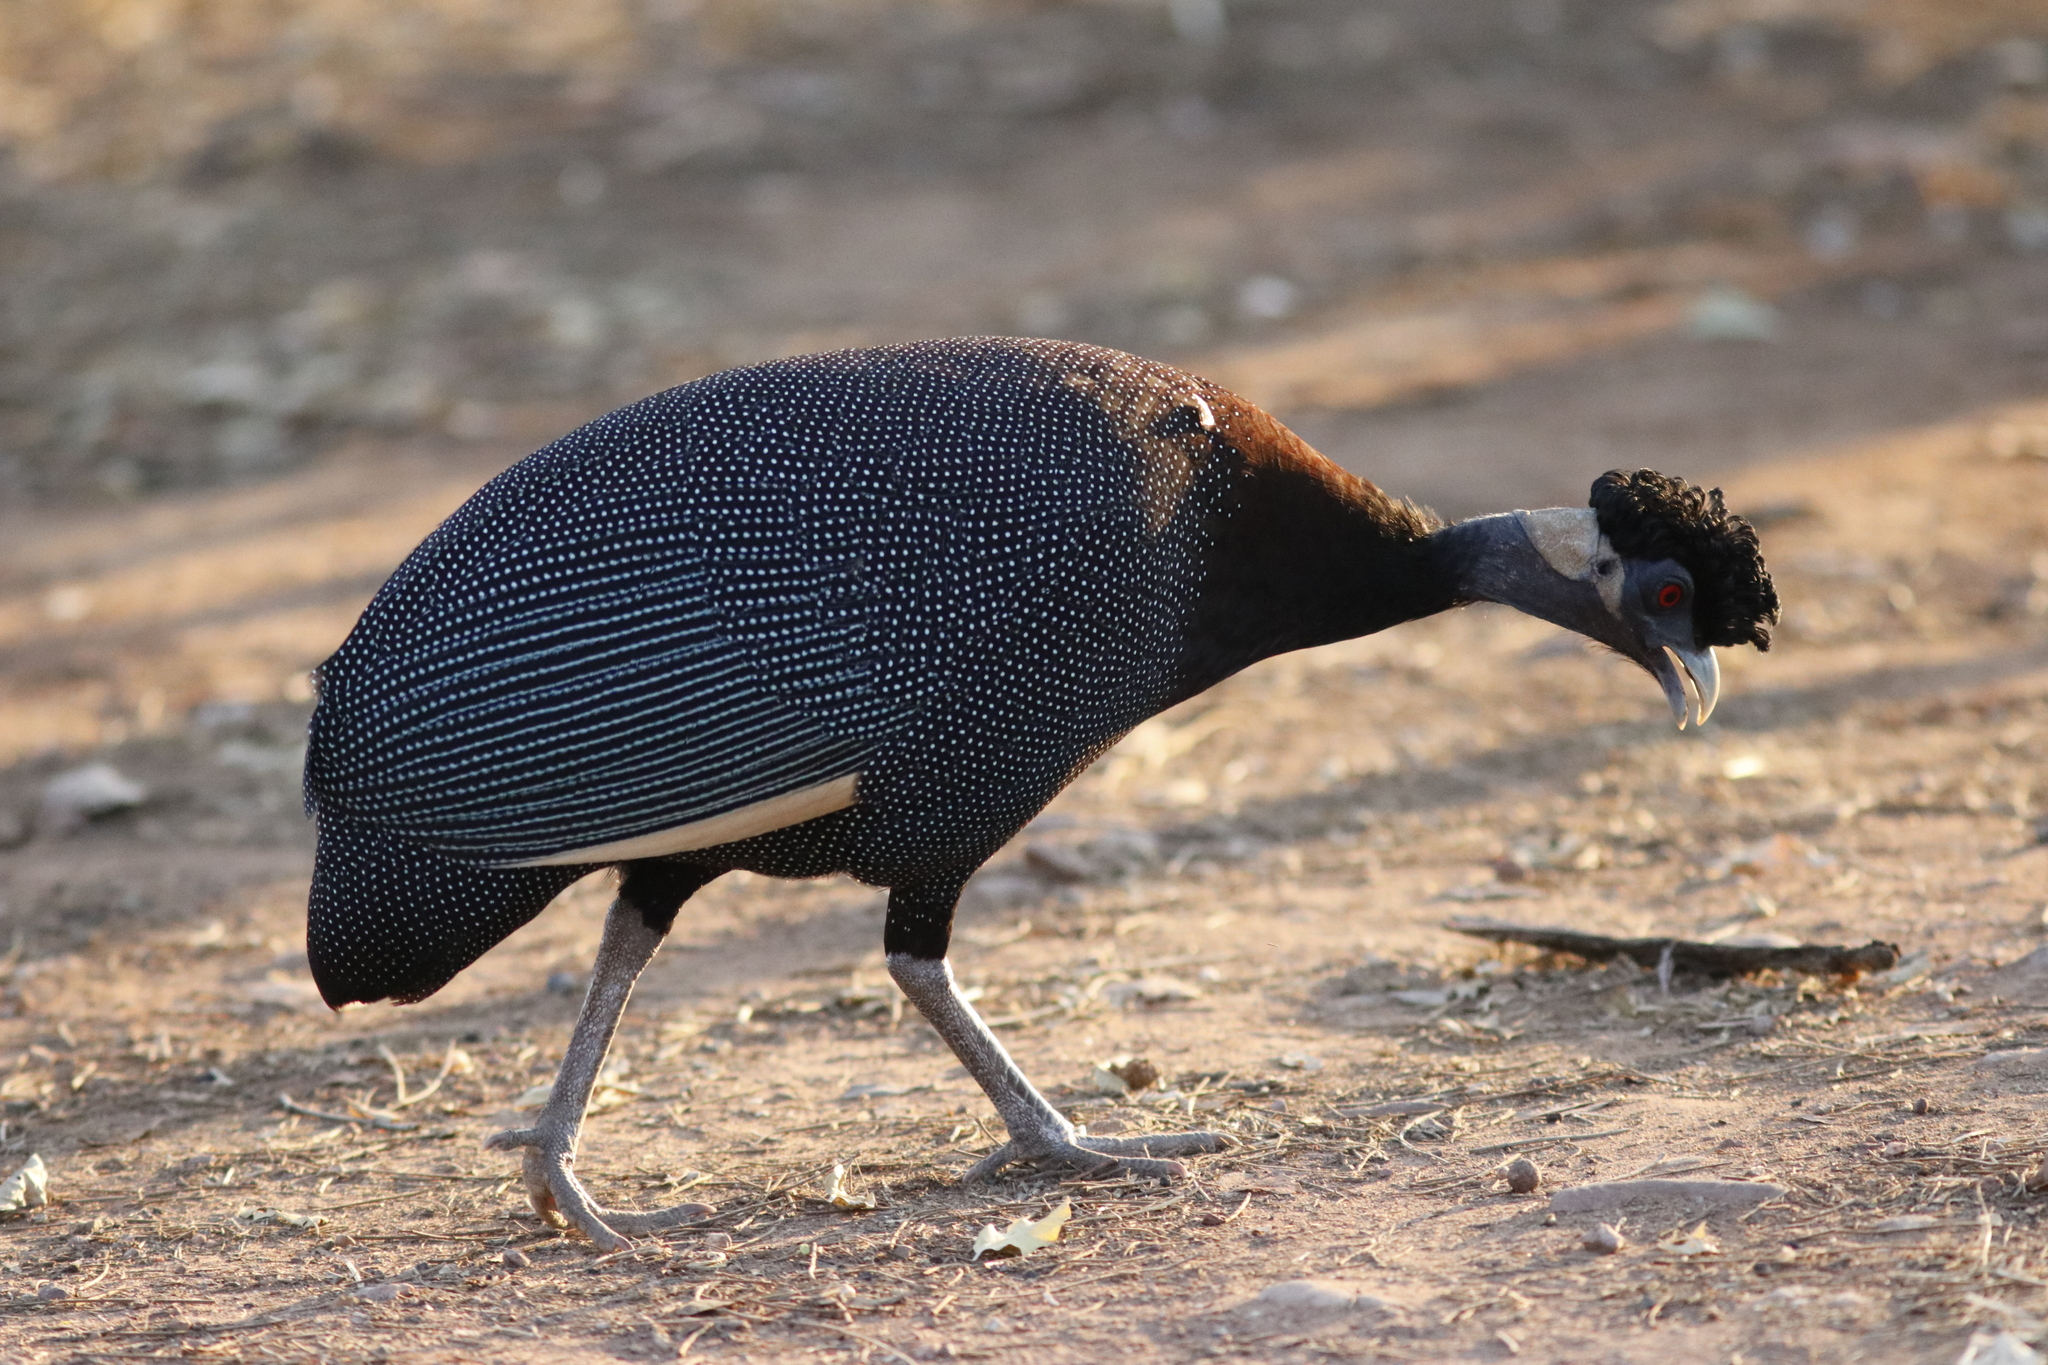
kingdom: Animalia
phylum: Chordata
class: Aves
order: Galliformes
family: Numididae
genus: Guttera
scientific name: Guttera pucherani
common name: Crested guineafowl
